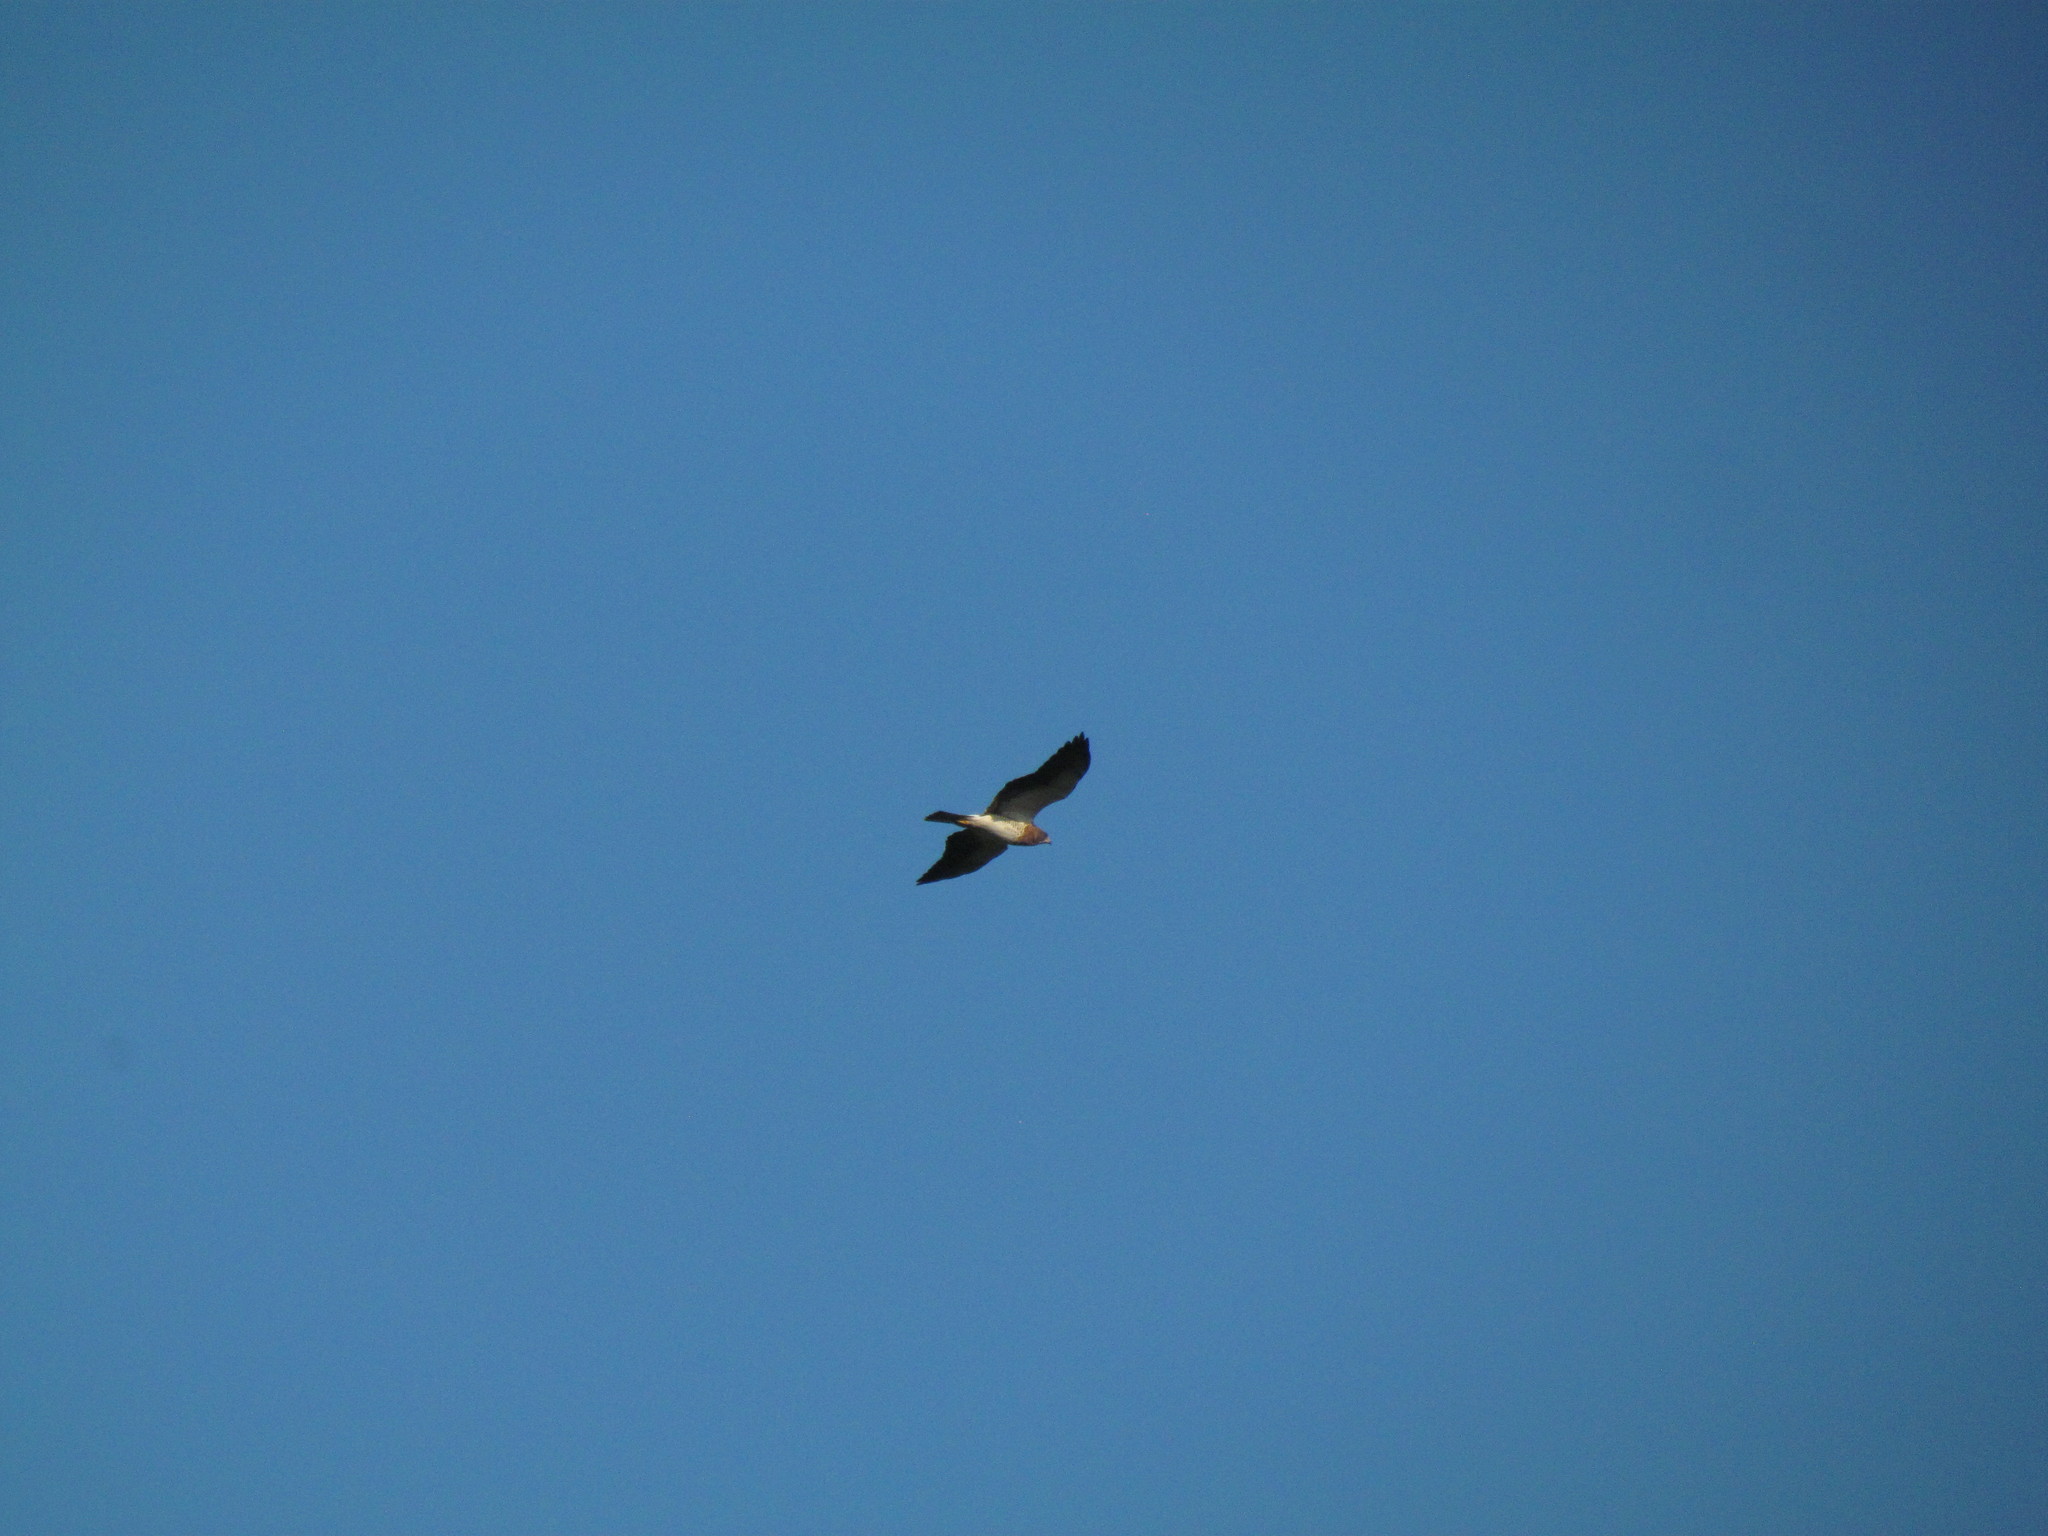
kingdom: Animalia
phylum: Chordata
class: Aves
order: Accipitriformes
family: Accipitridae
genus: Buteo
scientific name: Buteo swainsoni
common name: Swainson's hawk
